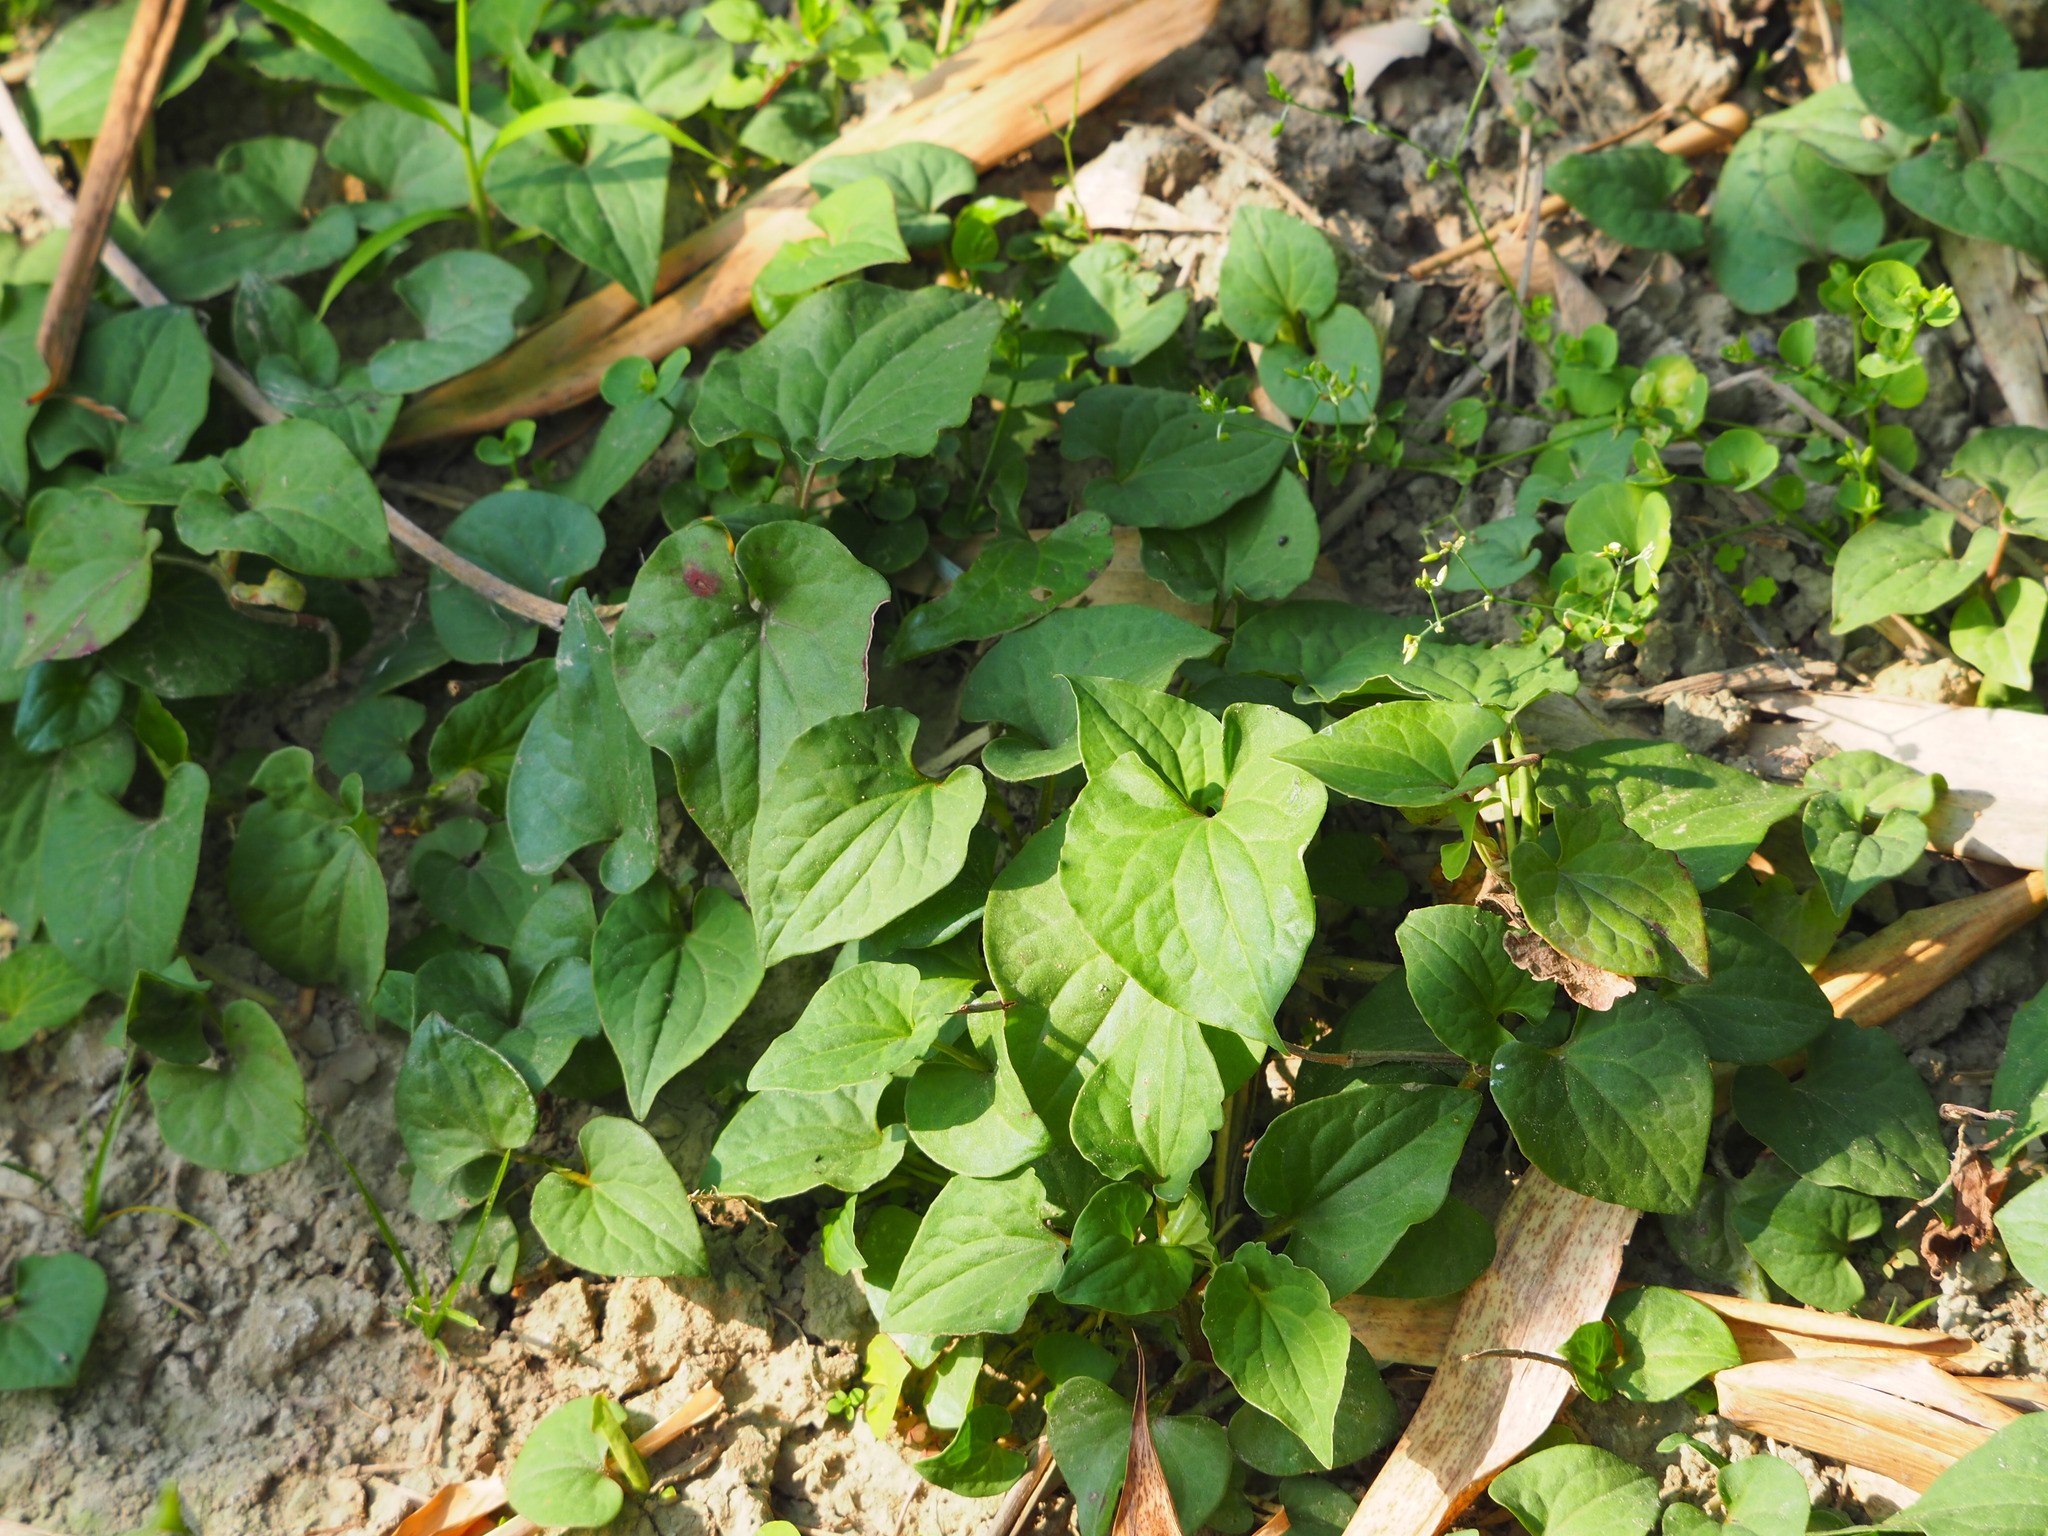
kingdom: Plantae
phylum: Tracheophyta
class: Magnoliopsida
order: Piperales
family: Saururaceae
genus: Houttuynia
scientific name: Houttuynia cordata
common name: Chameleon
